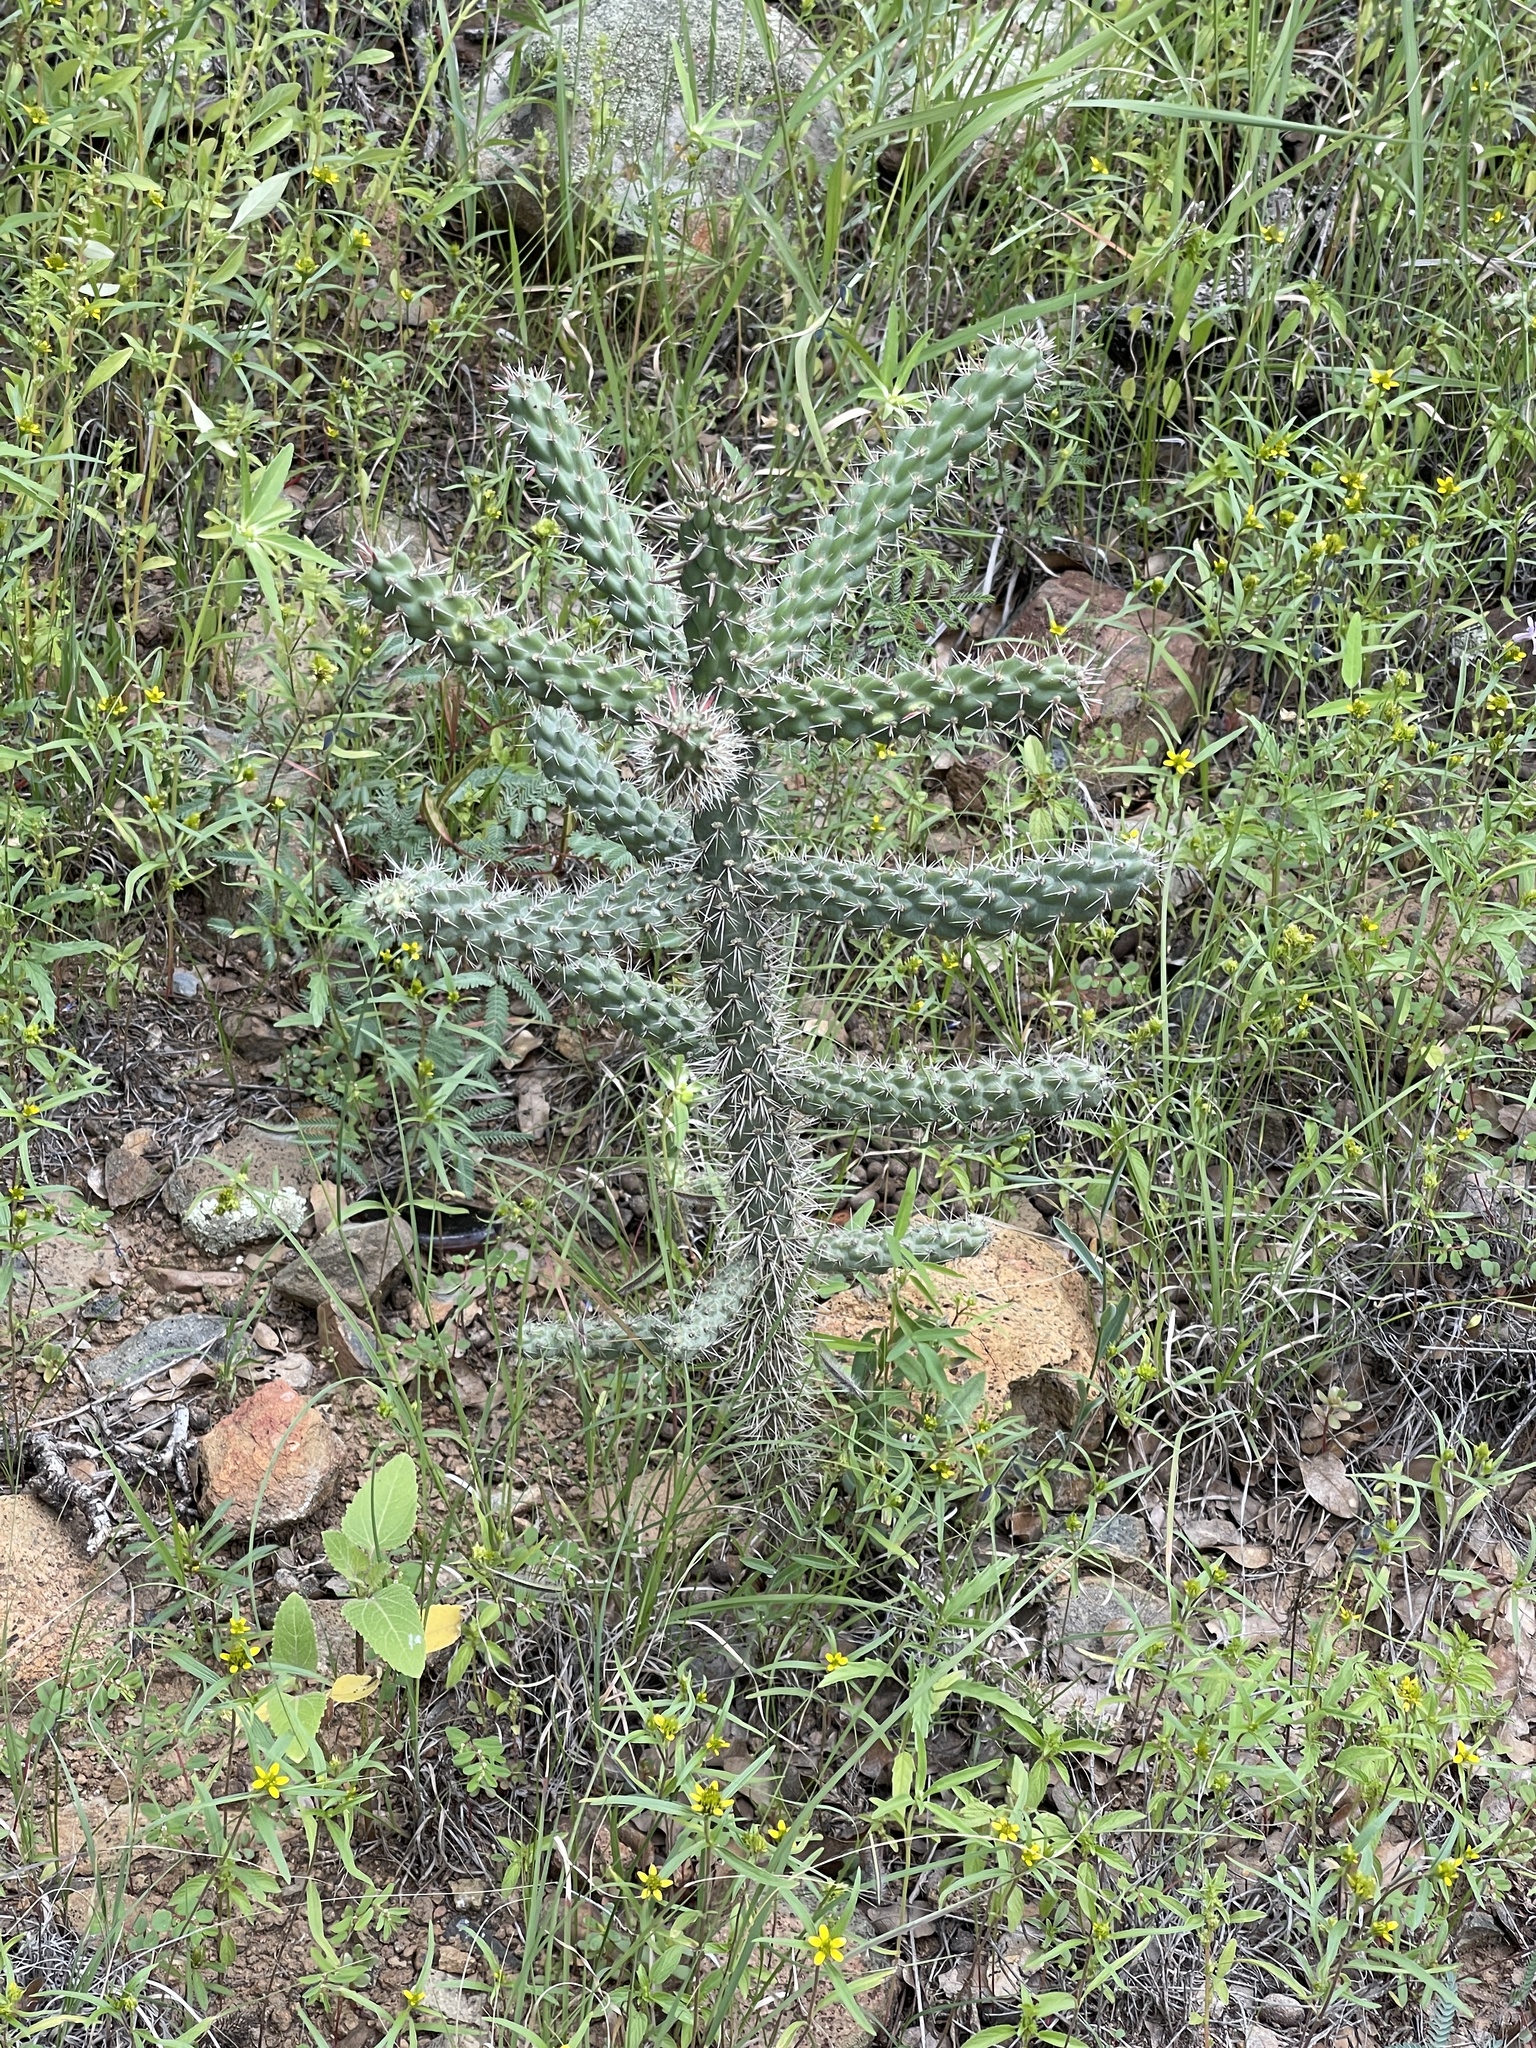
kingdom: Plantae
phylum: Tracheophyta
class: Magnoliopsida
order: Caryophyllales
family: Cactaceae
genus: Cylindropuntia
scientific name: Cylindropuntia imbricata
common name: Candelabrum cactus
